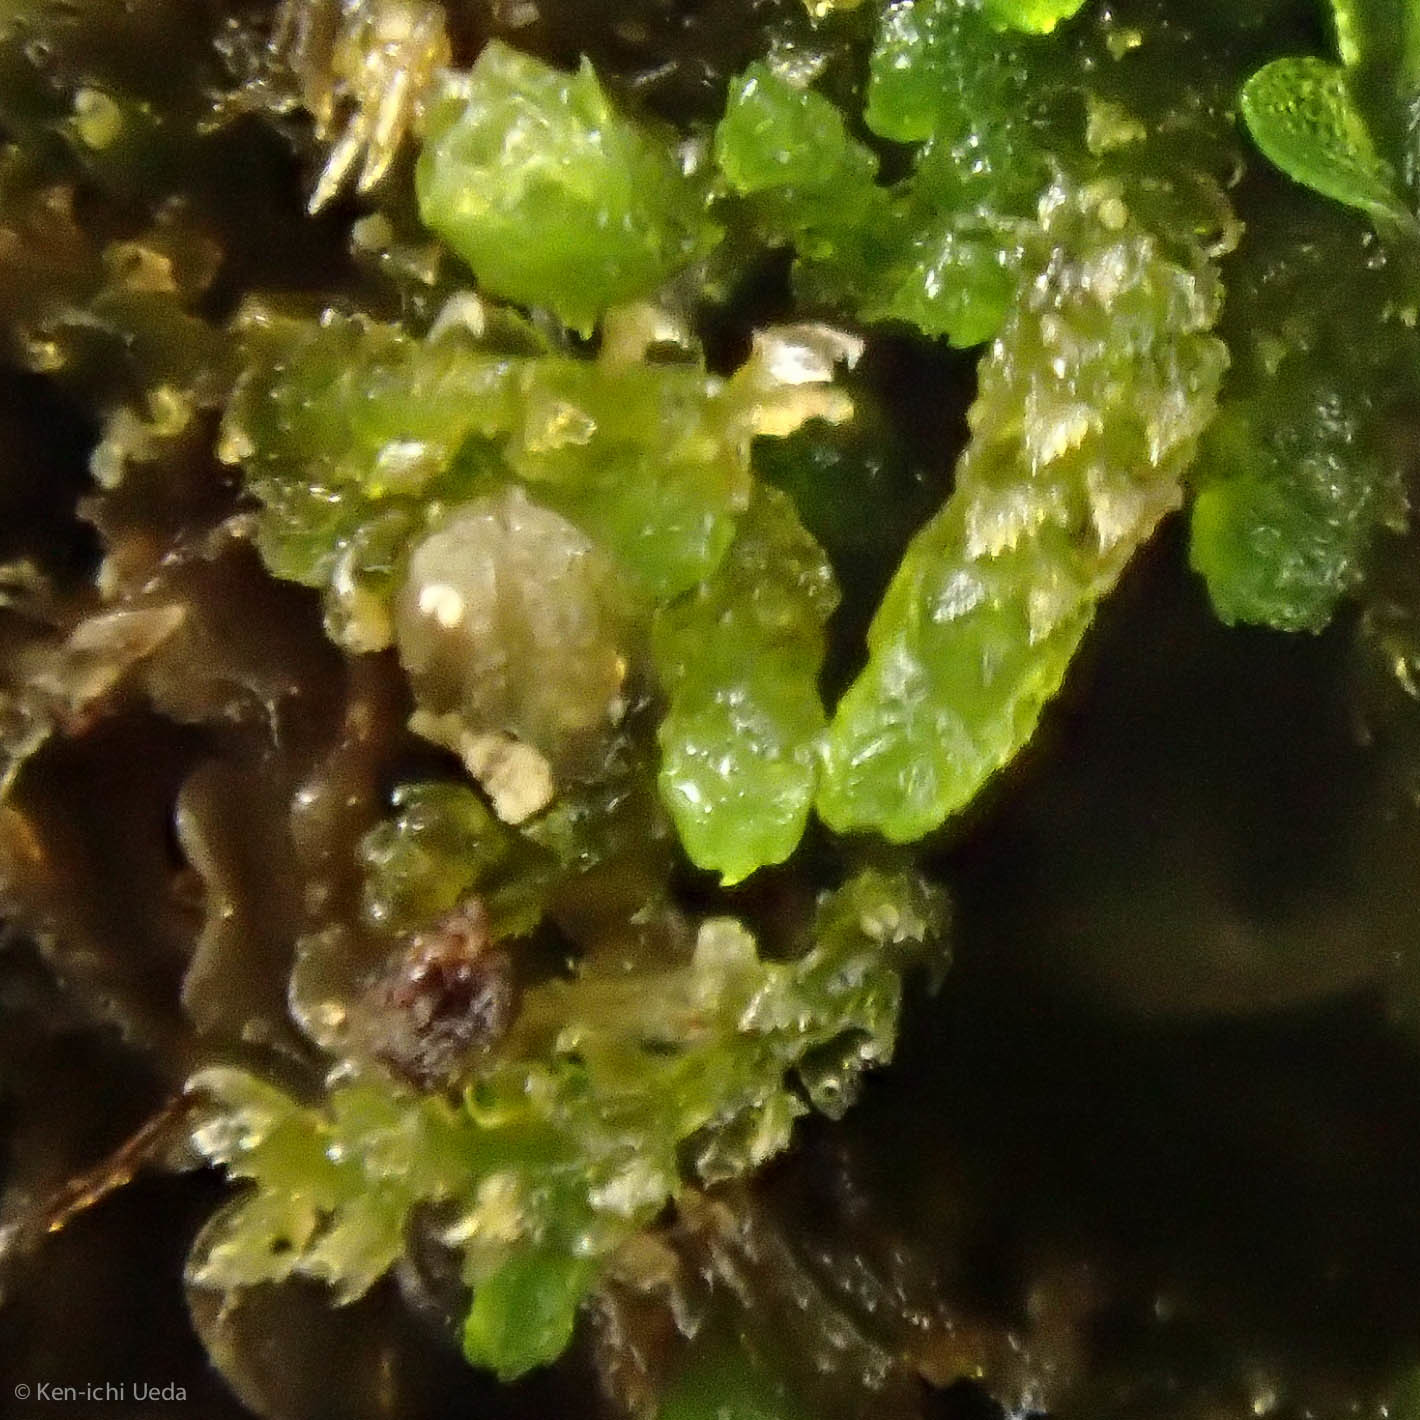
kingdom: Plantae
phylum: Marchantiophyta
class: Jungermanniopsida
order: Jungermanniales
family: Cephaloziellaceae
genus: Cephaloziella
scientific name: Cephaloziella turneri
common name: Turner's threadwort
